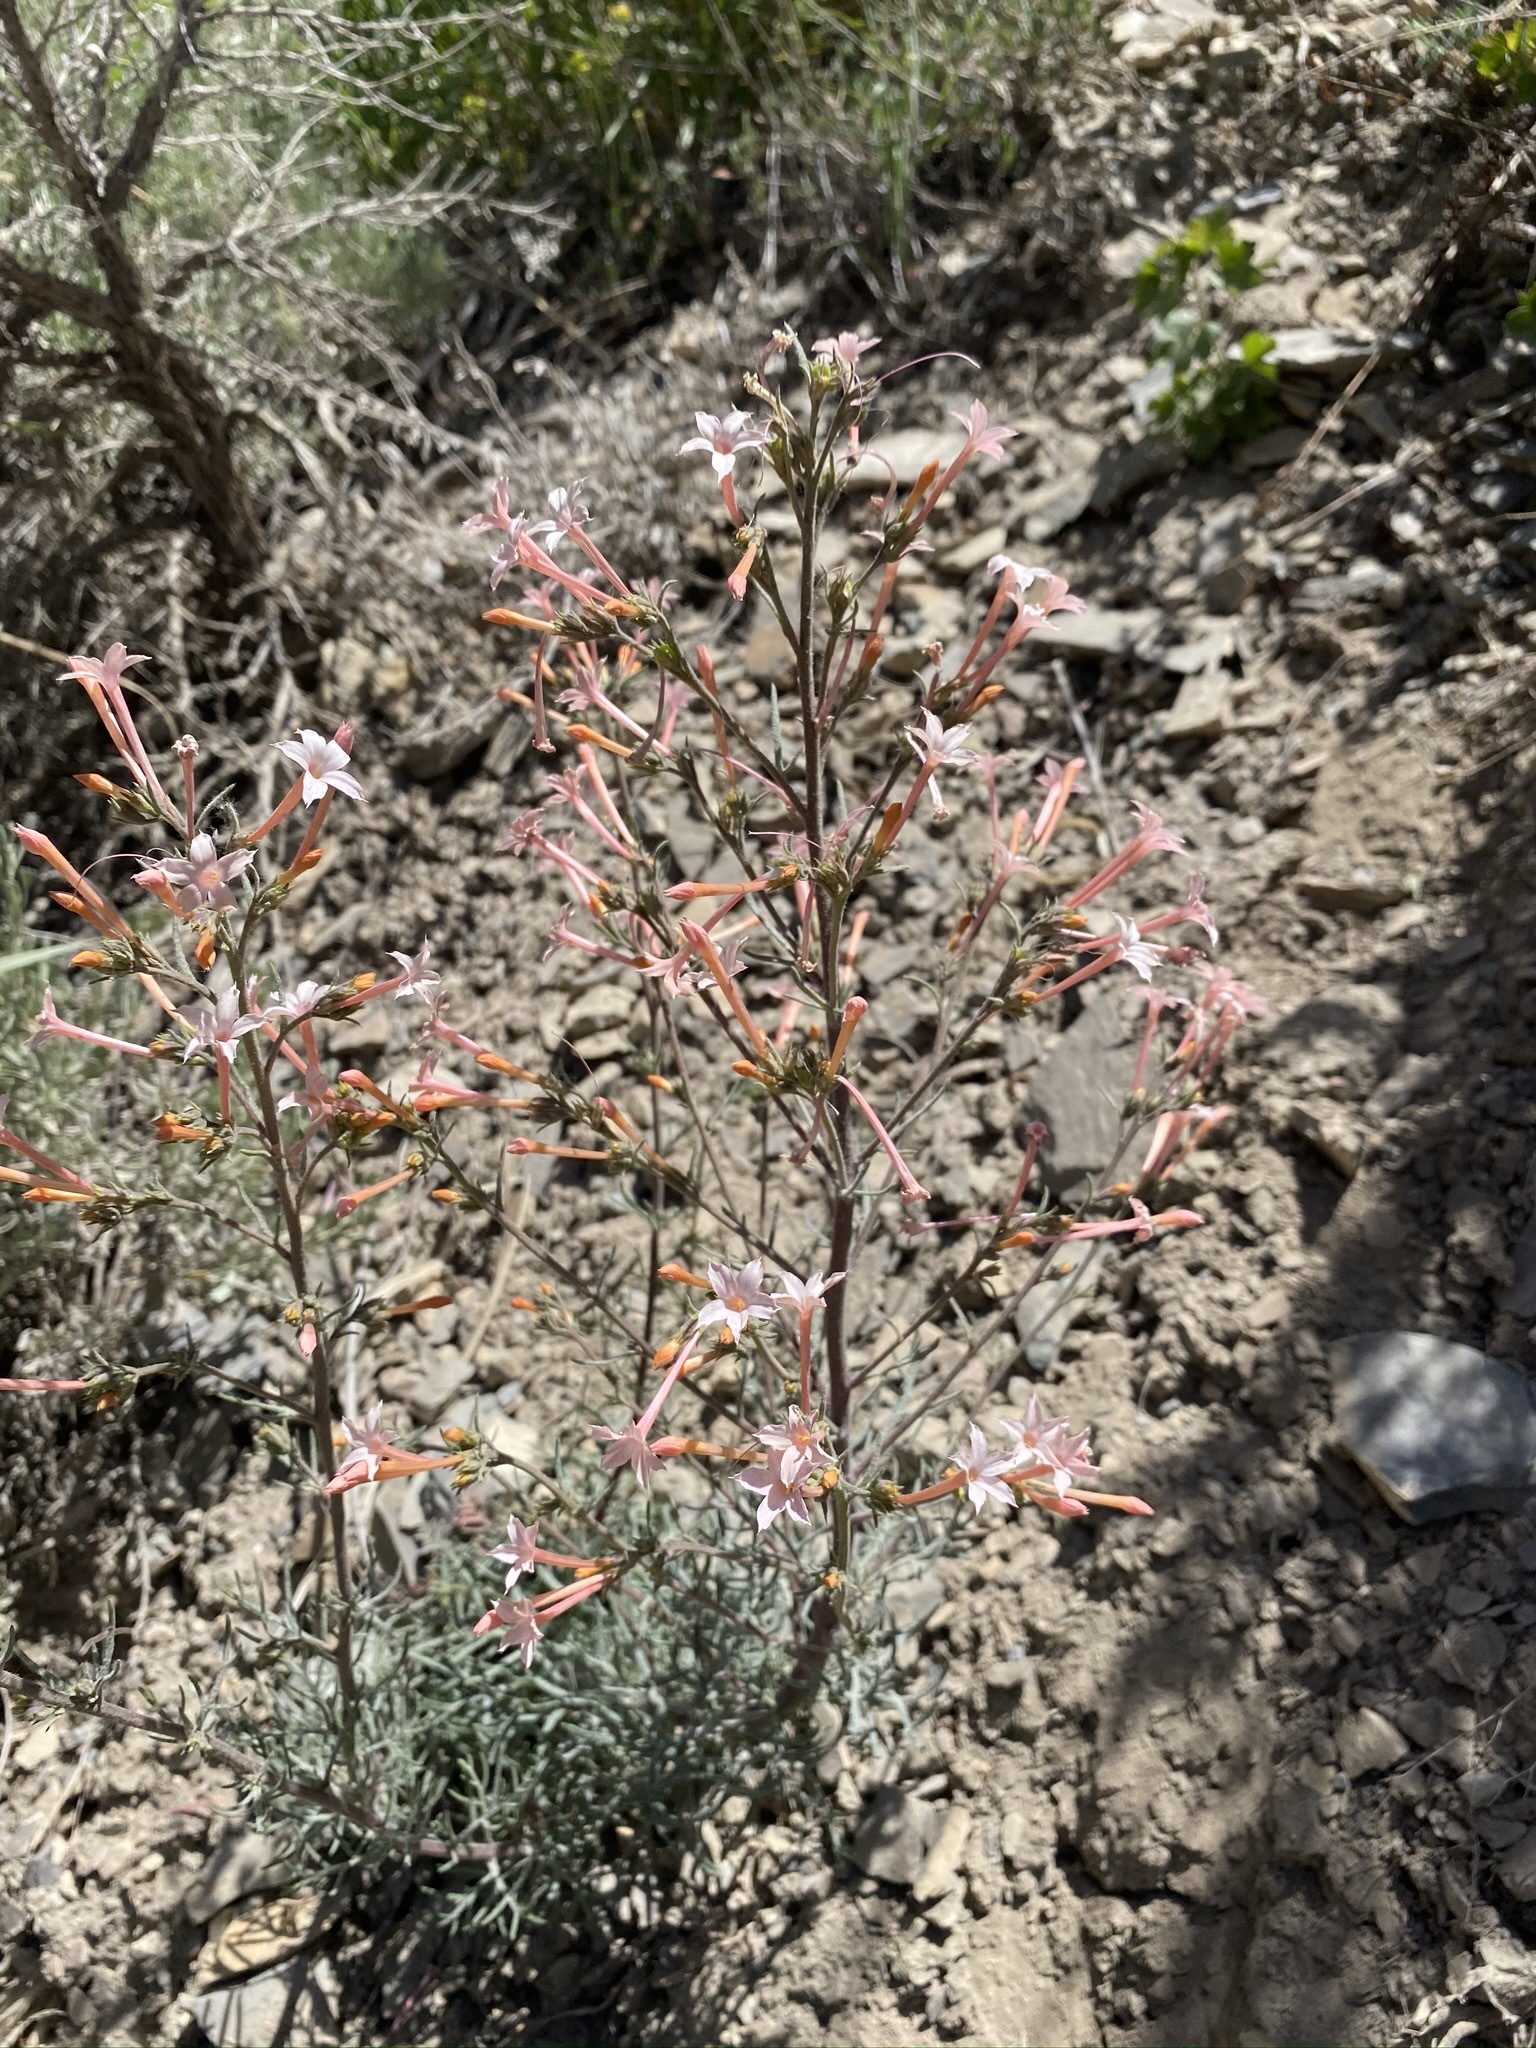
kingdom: Plantae
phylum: Tracheophyta
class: Magnoliopsida
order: Ericales
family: Polemoniaceae
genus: Ipomopsis
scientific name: Ipomopsis tenuituba
